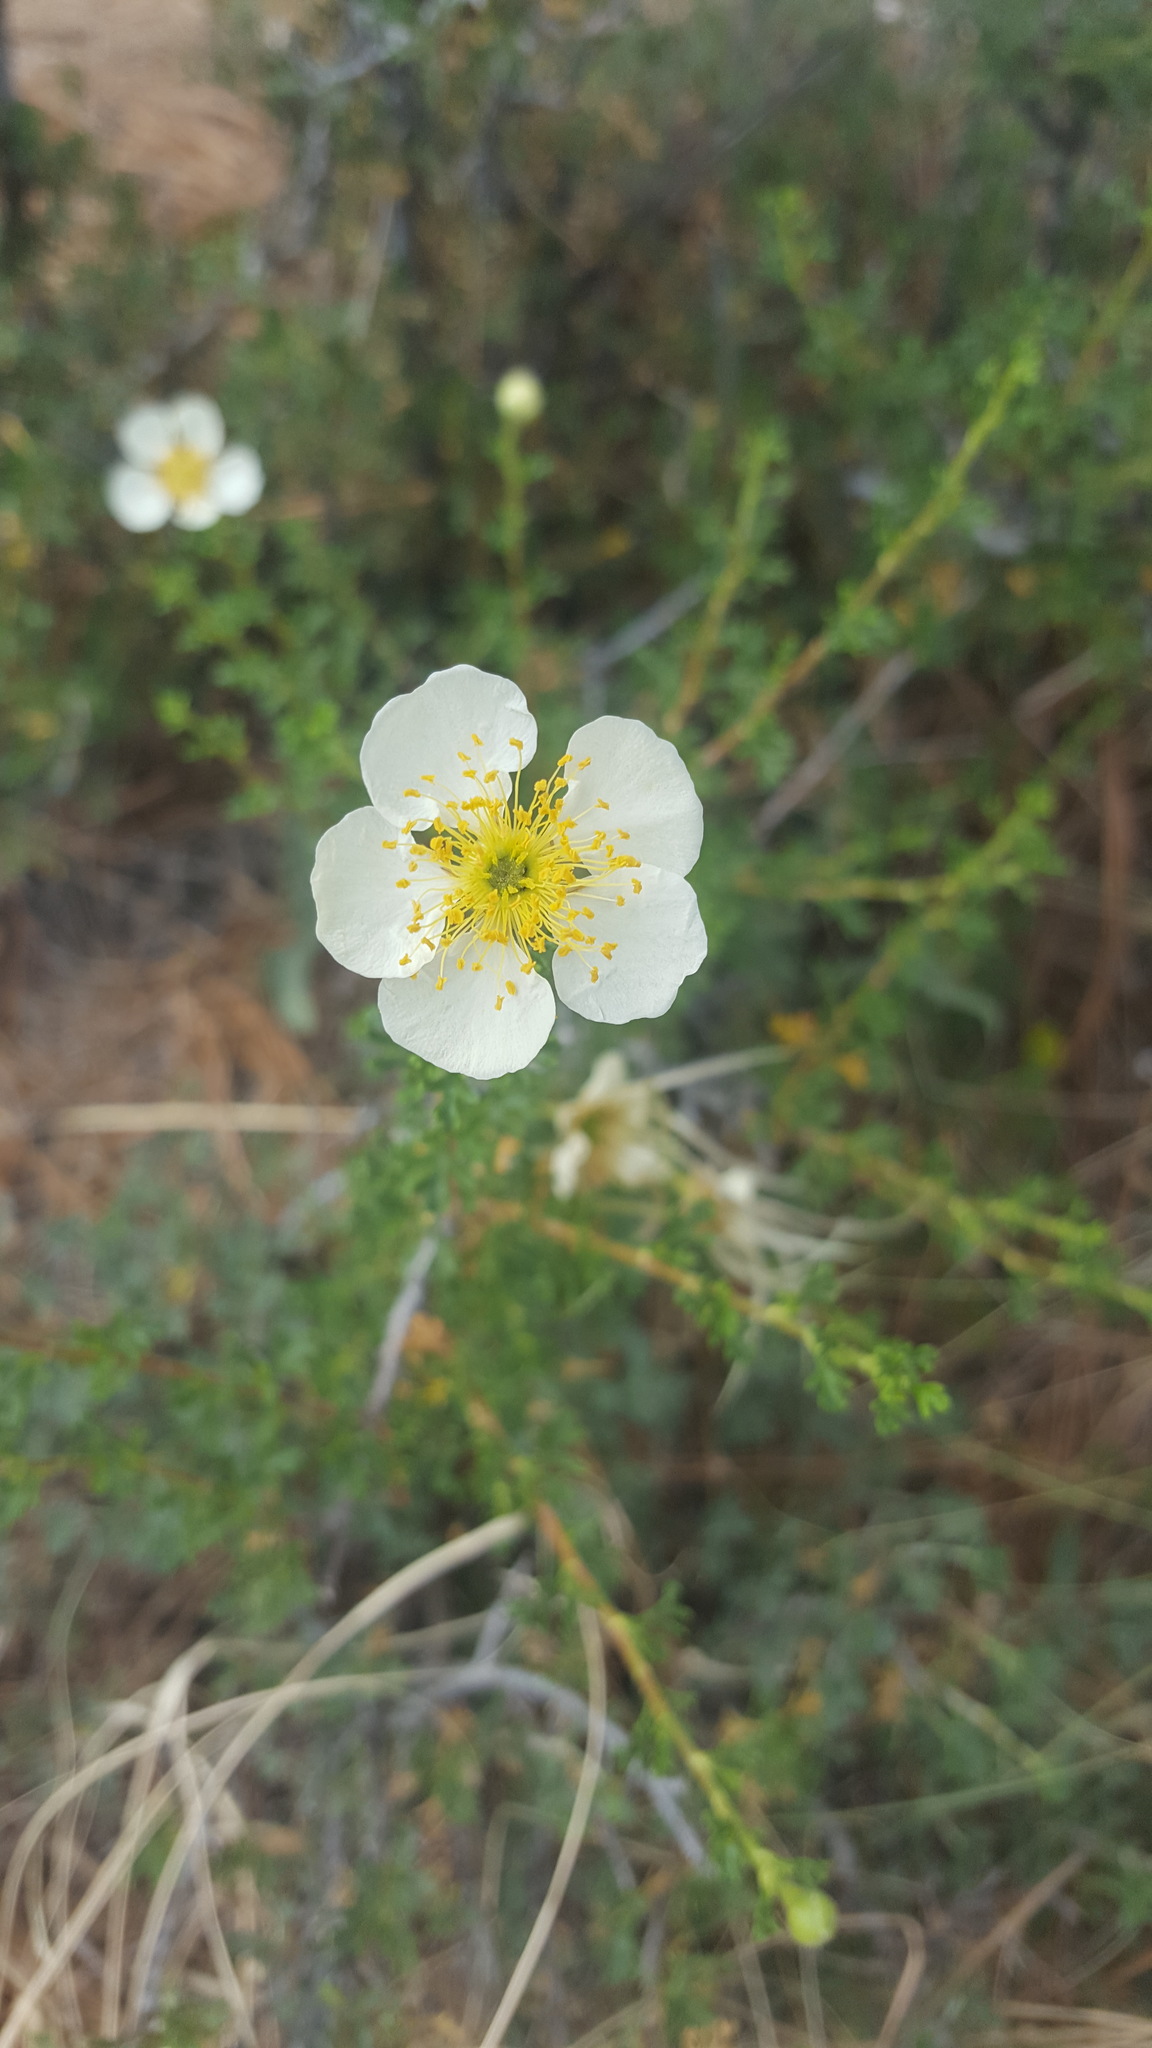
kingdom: Plantae
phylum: Tracheophyta
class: Magnoliopsida
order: Rosales
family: Rosaceae
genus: Purshia
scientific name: Purshia stansburiana
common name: Stansbury's cliffrose
